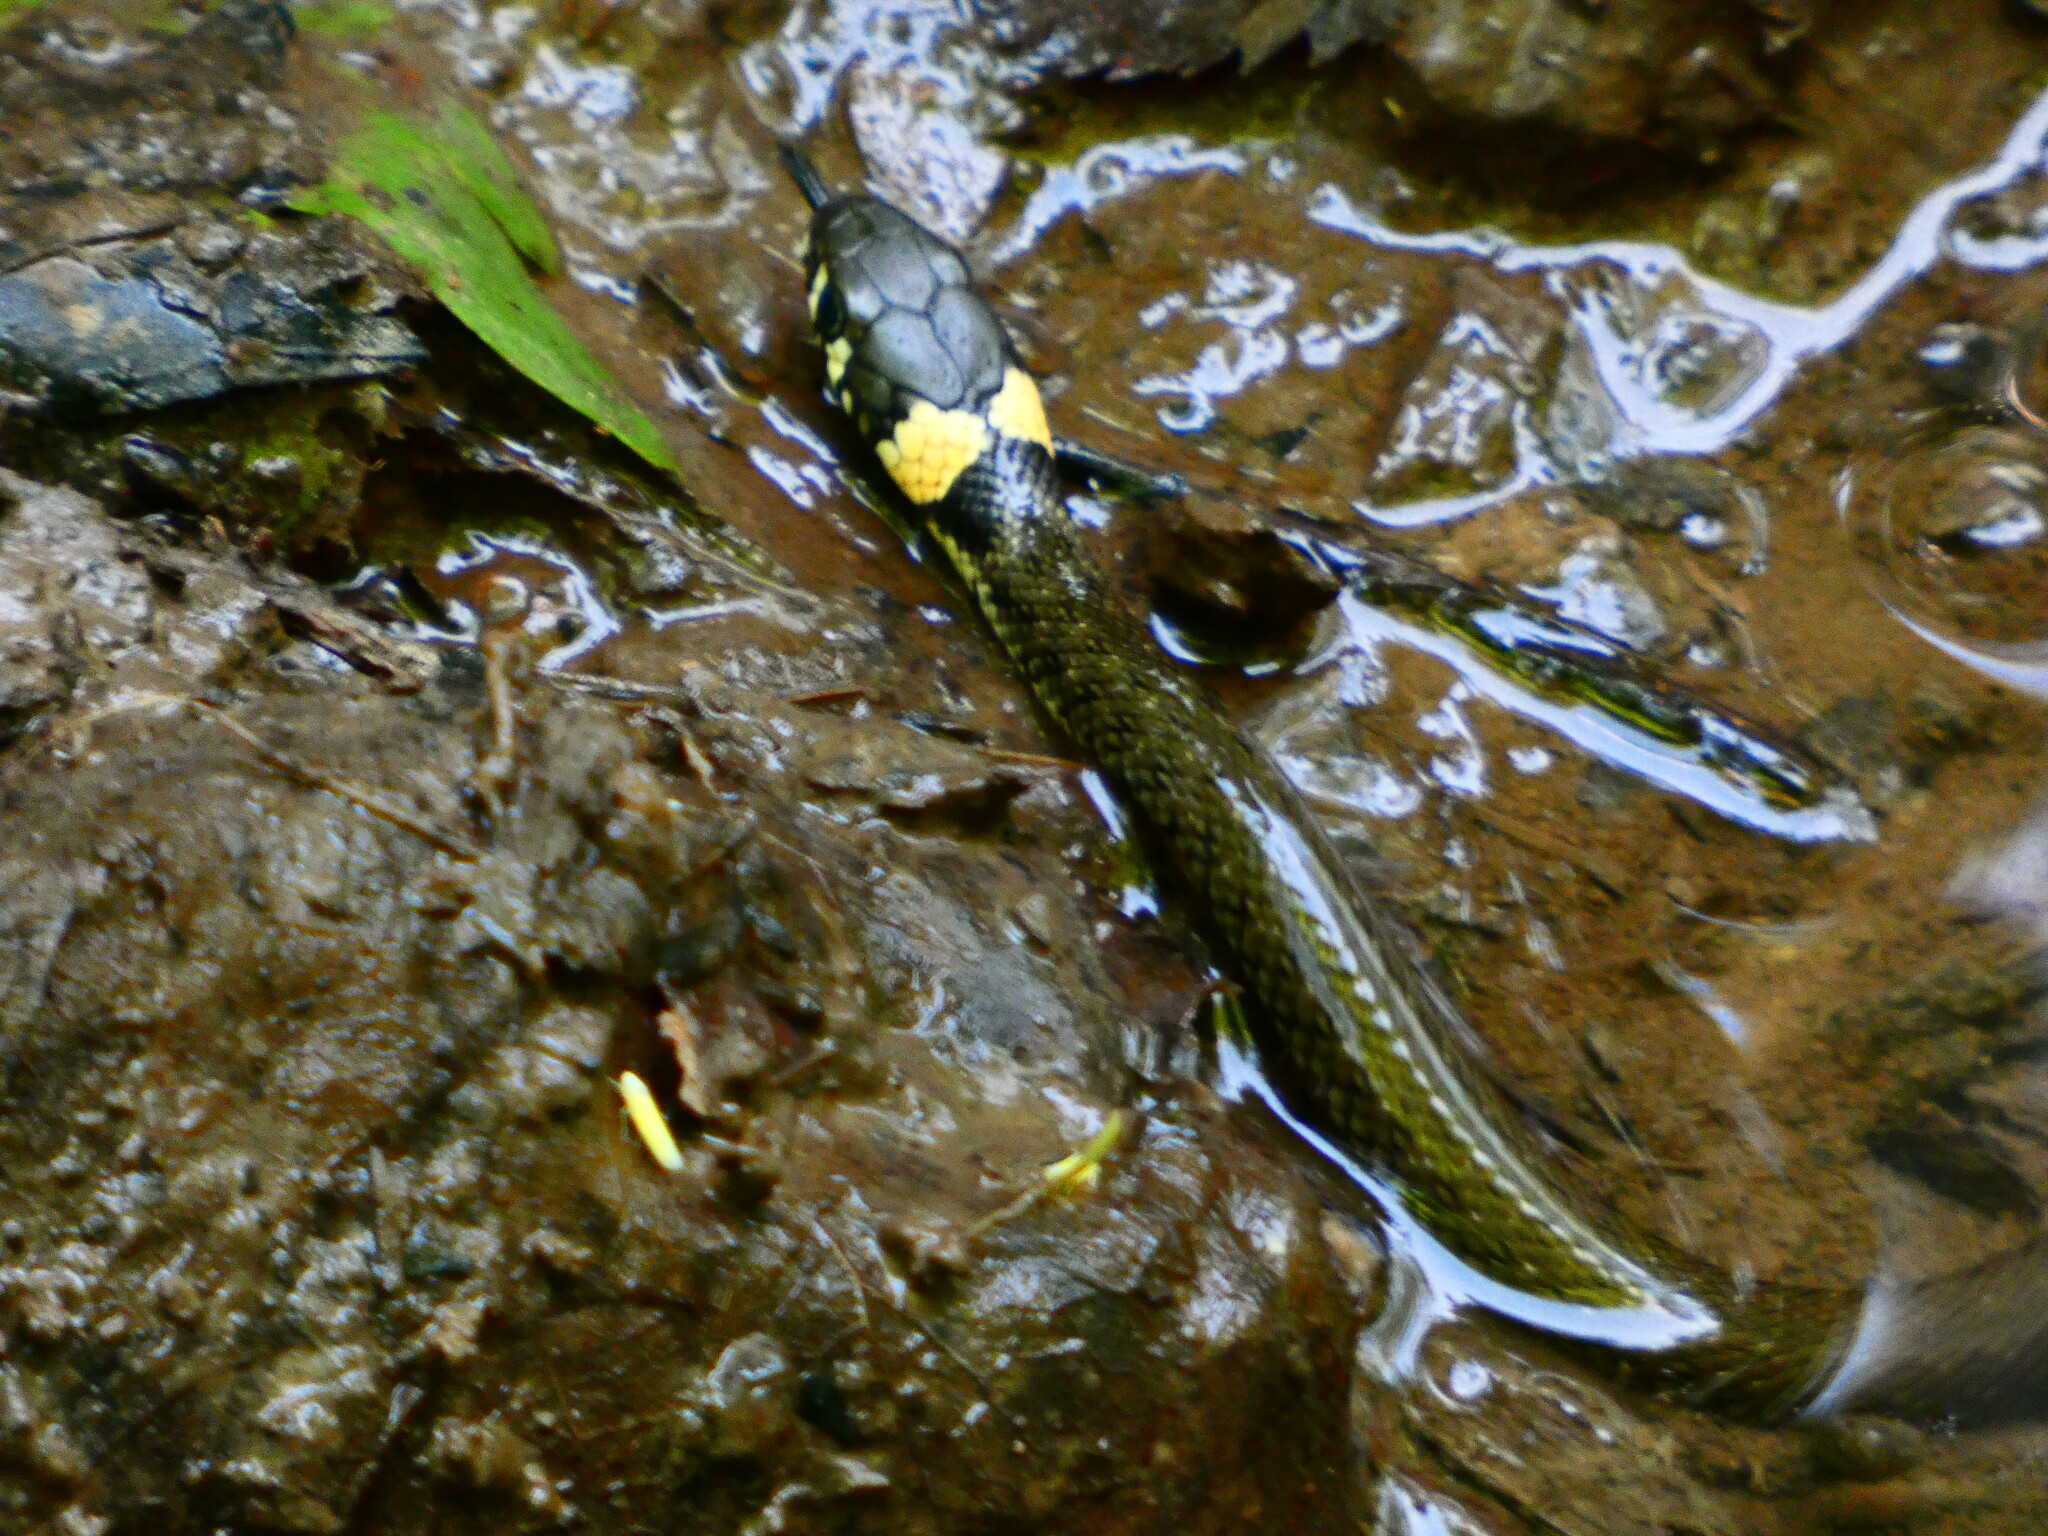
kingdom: Animalia
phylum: Chordata
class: Squamata
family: Colubridae
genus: Natrix
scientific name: Natrix natrix
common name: Grass snake
